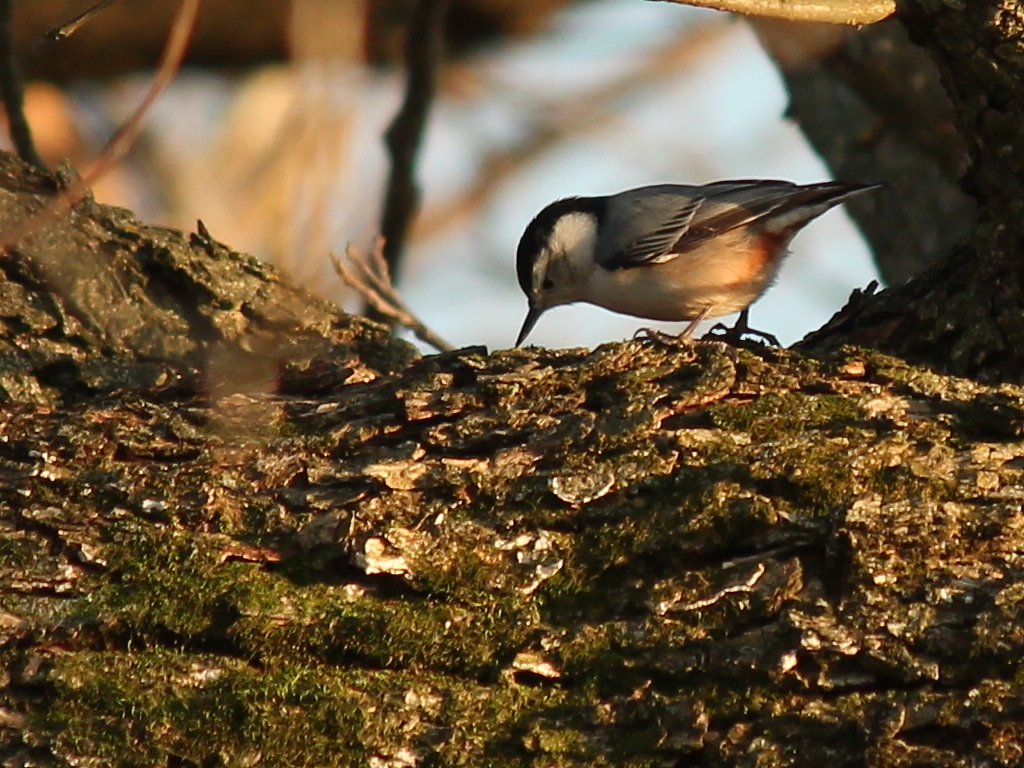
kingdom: Animalia
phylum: Chordata
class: Aves
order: Passeriformes
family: Sittidae
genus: Sitta
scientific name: Sitta carolinensis
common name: White-breasted nuthatch
